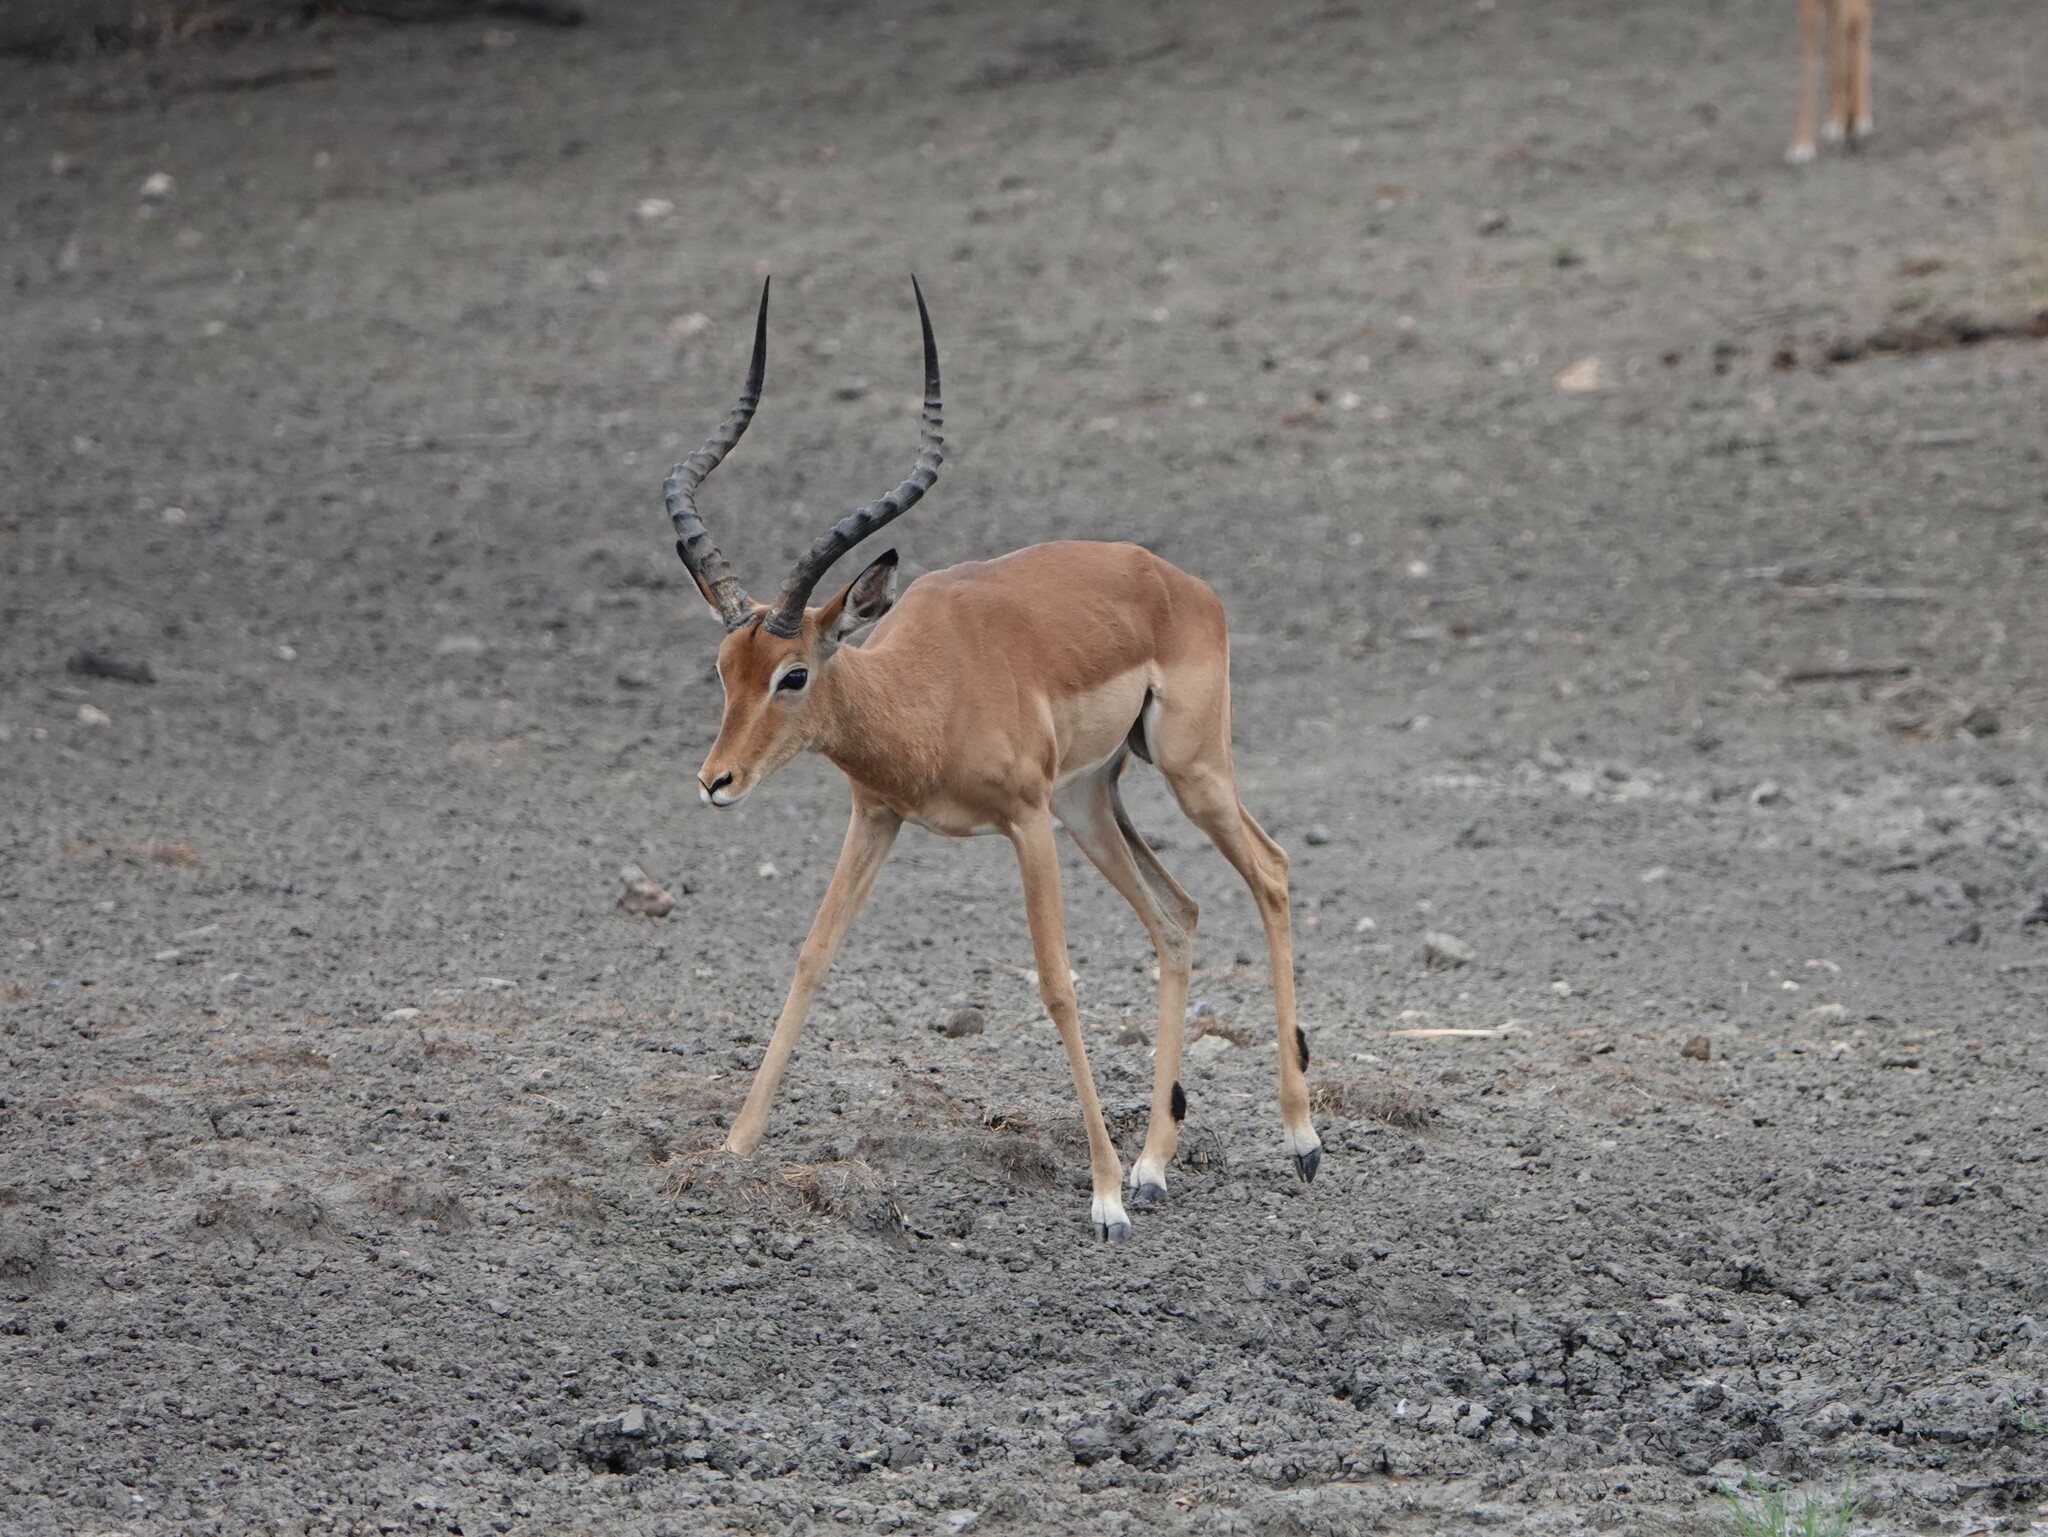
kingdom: Animalia
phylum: Chordata
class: Mammalia
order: Artiodactyla
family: Bovidae
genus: Aepyceros
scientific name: Aepyceros melampus
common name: Impala
